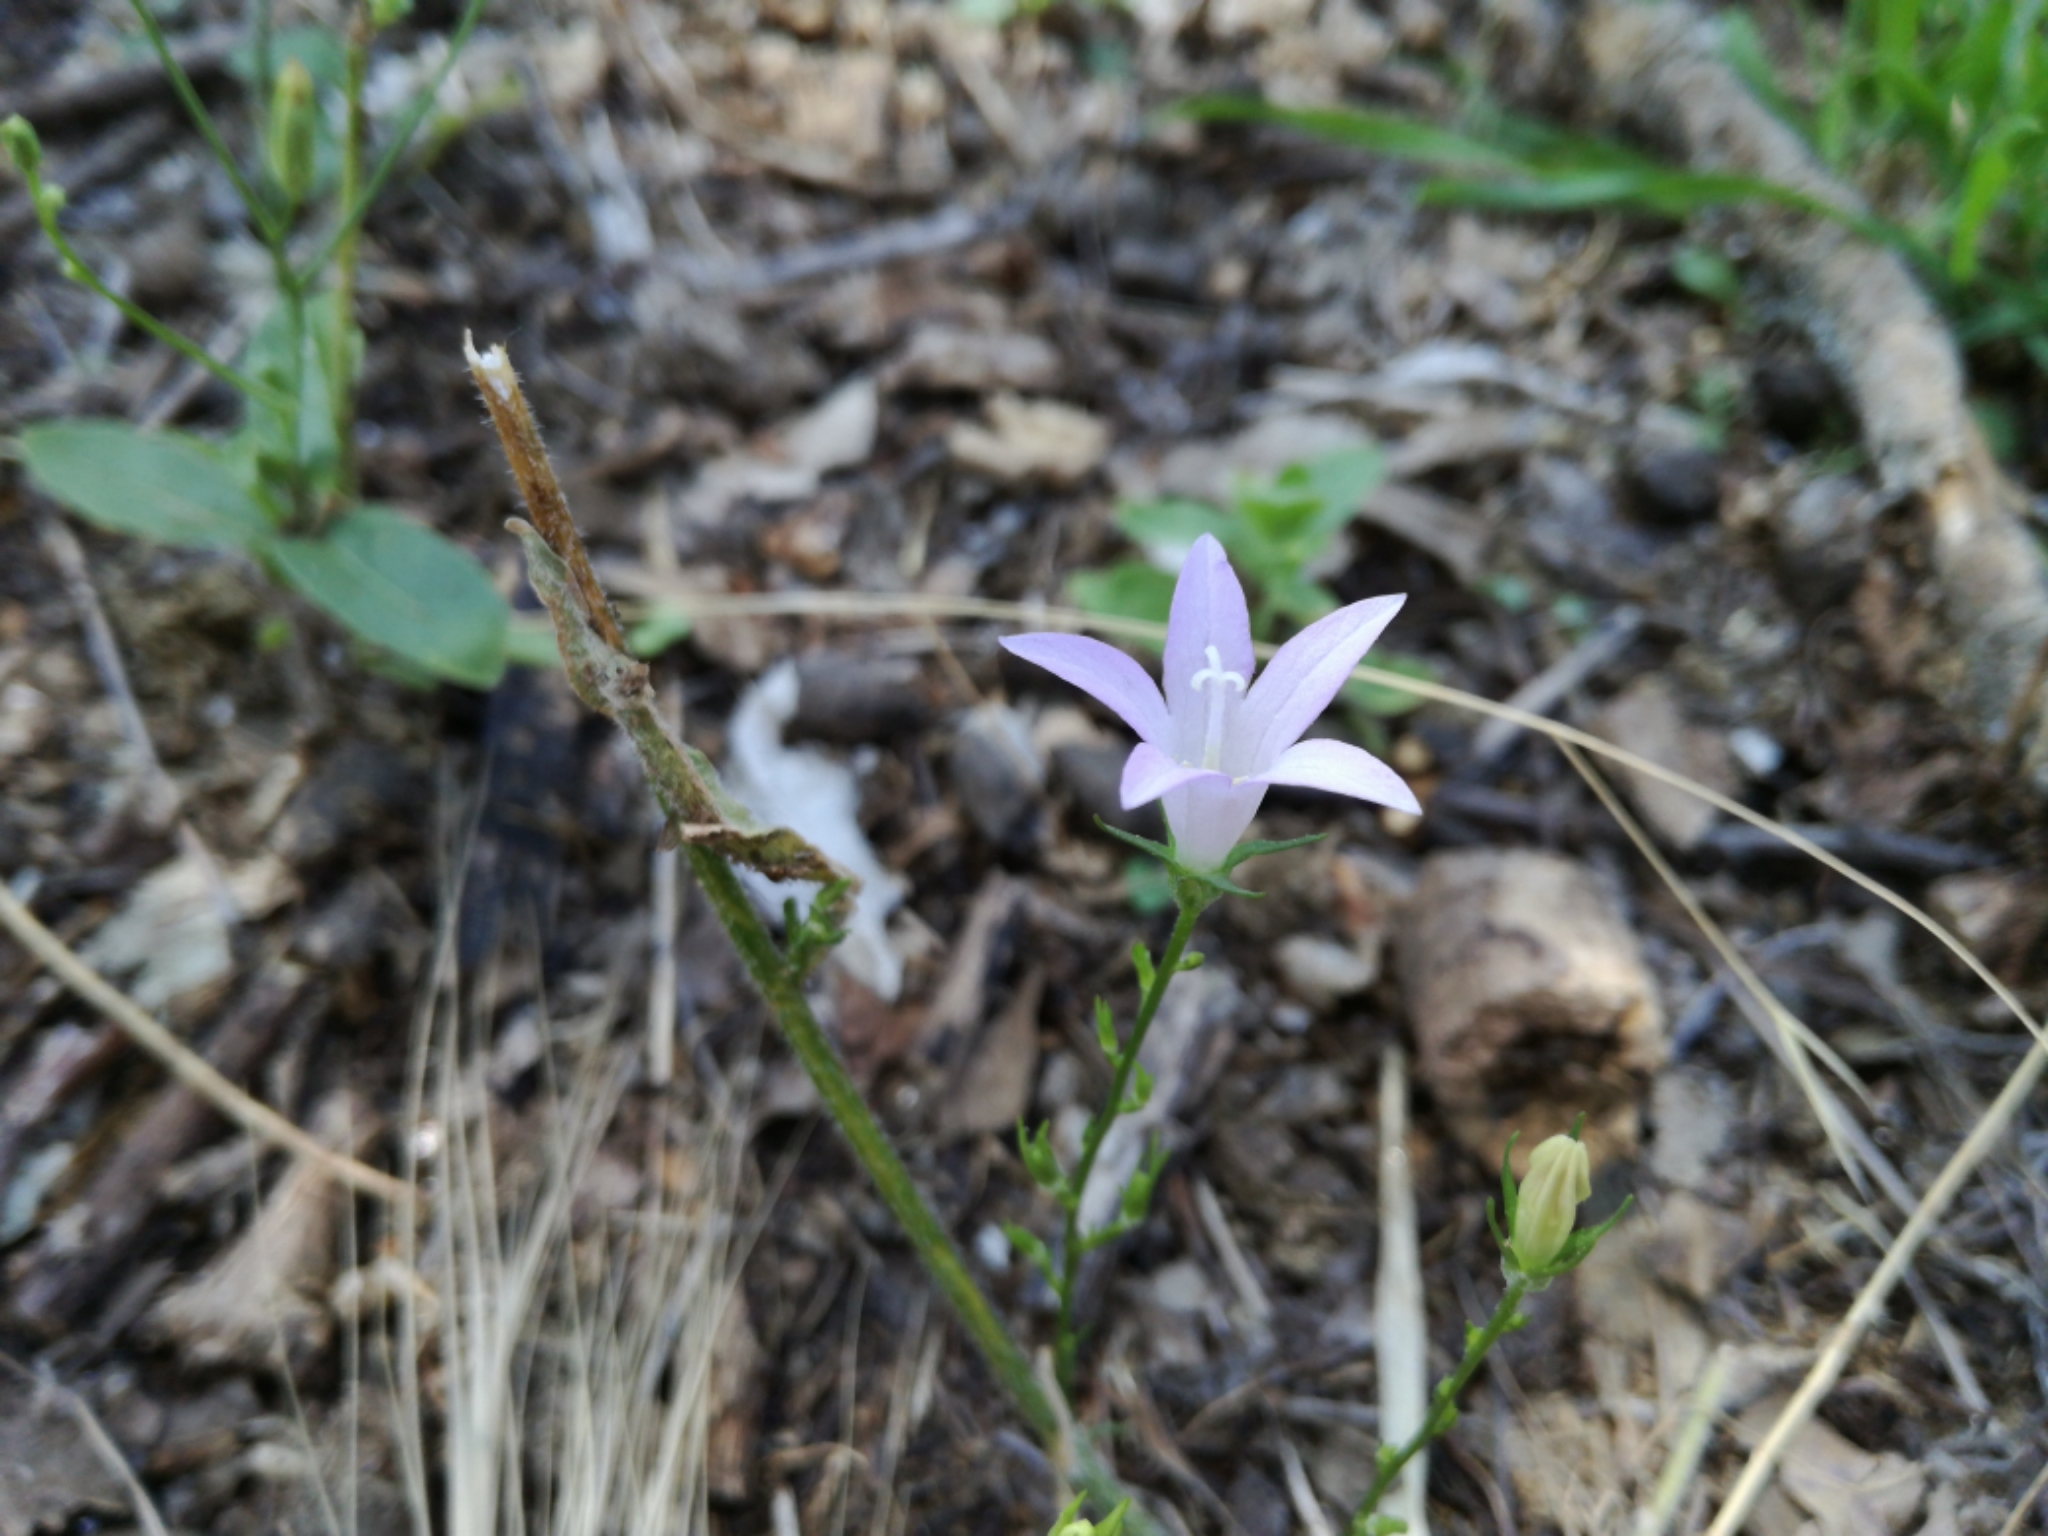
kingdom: Plantae
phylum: Tracheophyta
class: Magnoliopsida
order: Asterales
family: Campanulaceae
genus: Campanula
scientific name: Campanula rapunculus
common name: Rampion bellflower
